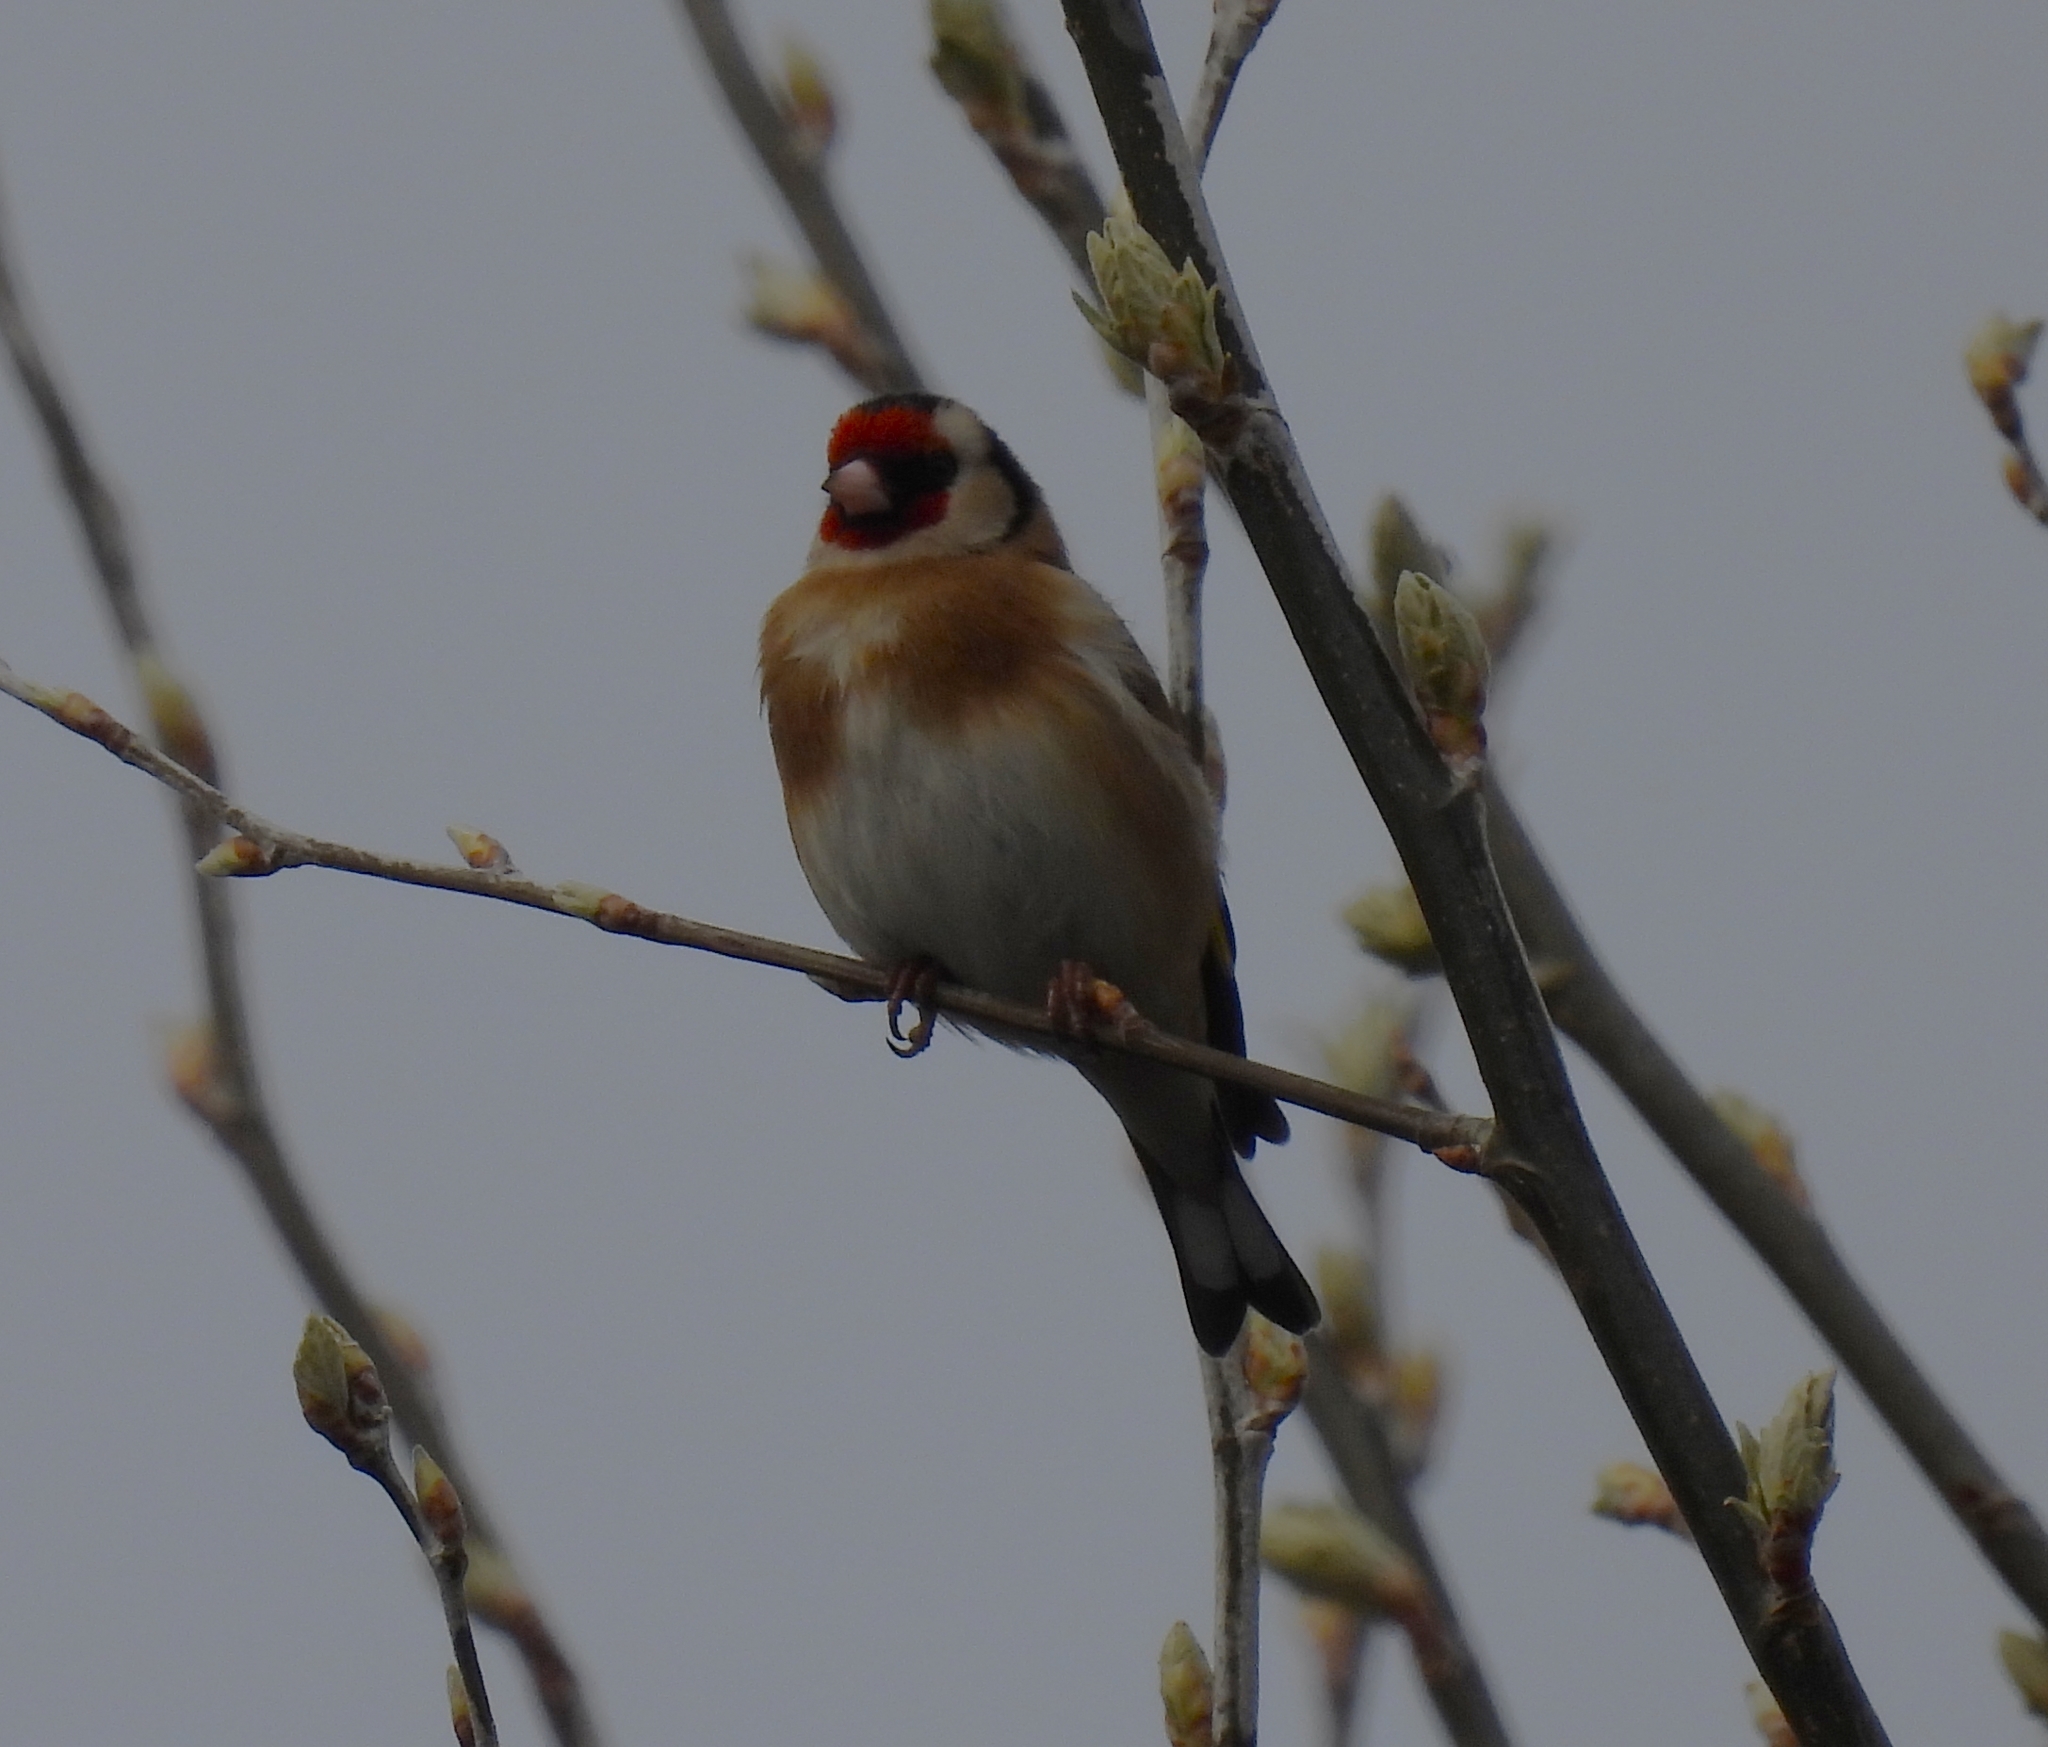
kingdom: Animalia
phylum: Chordata
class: Aves
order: Passeriformes
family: Fringillidae
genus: Carduelis
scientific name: Carduelis carduelis
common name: European goldfinch
